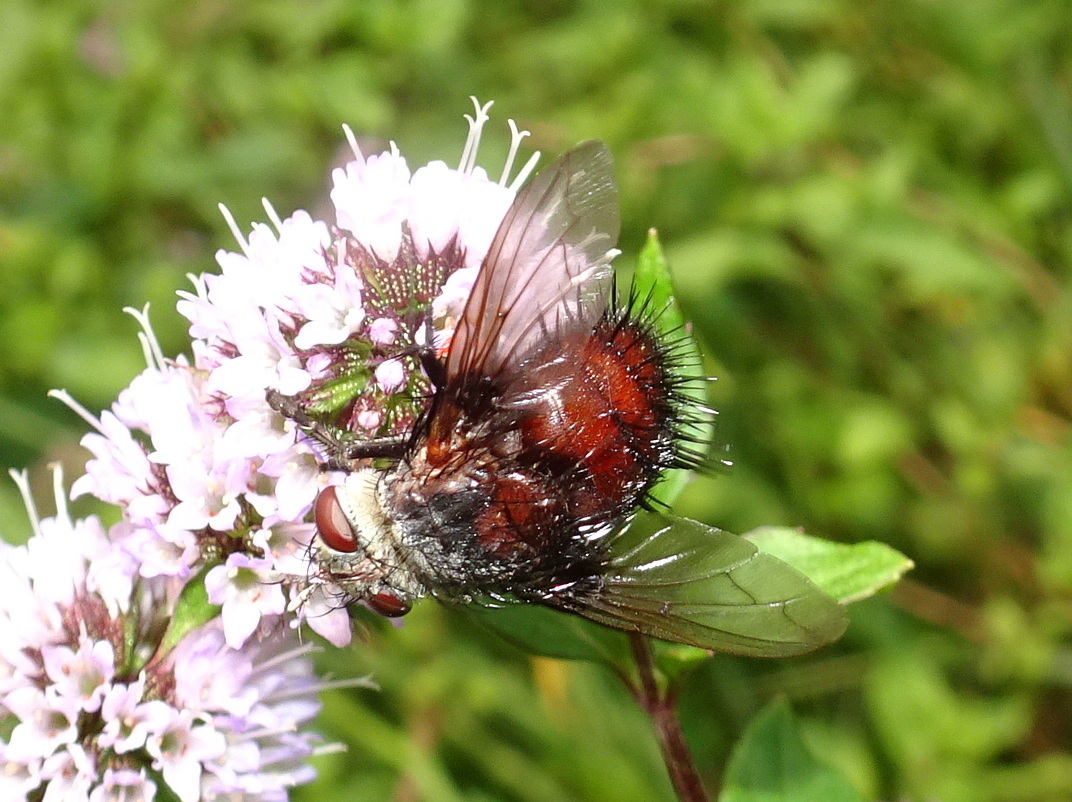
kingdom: Animalia
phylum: Arthropoda
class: Insecta
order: Diptera
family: Tachinidae
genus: Juriniopsis
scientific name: Juriniopsis adusta
